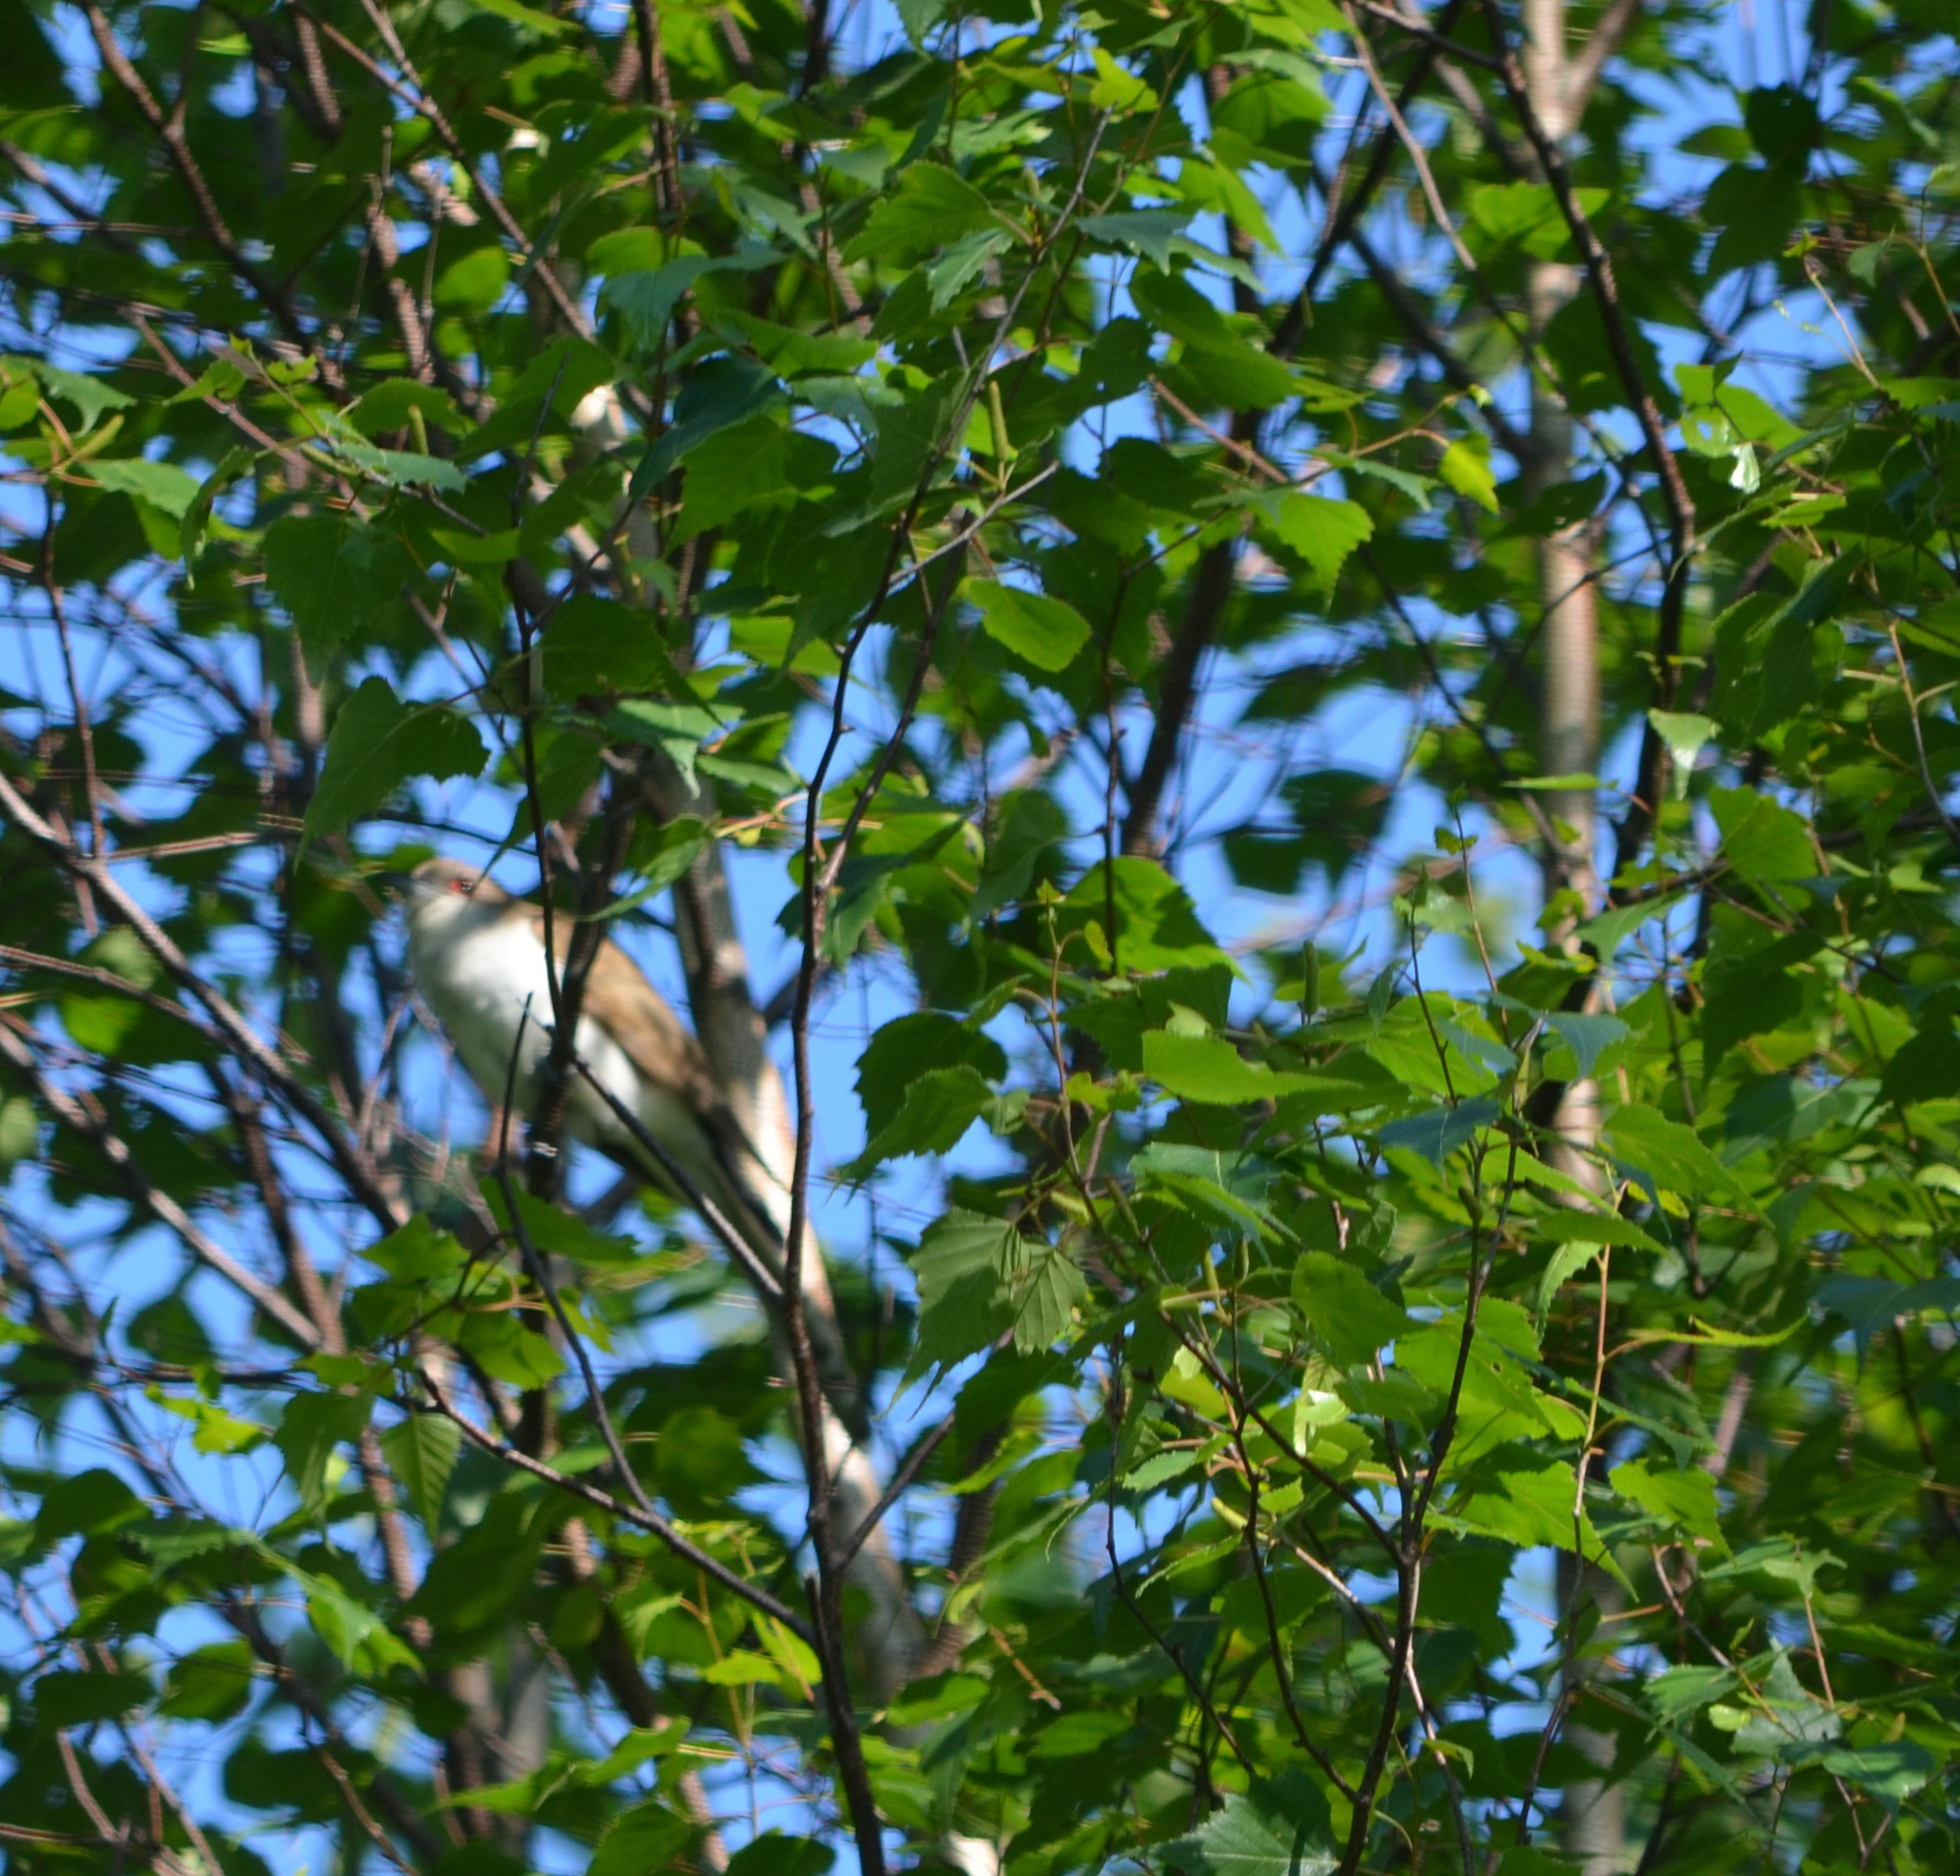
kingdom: Animalia
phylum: Chordata
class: Aves
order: Cuculiformes
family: Cuculidae
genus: Coccyzus
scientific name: Coccyzus erythropthalmus
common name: Black-billed cuckoo
